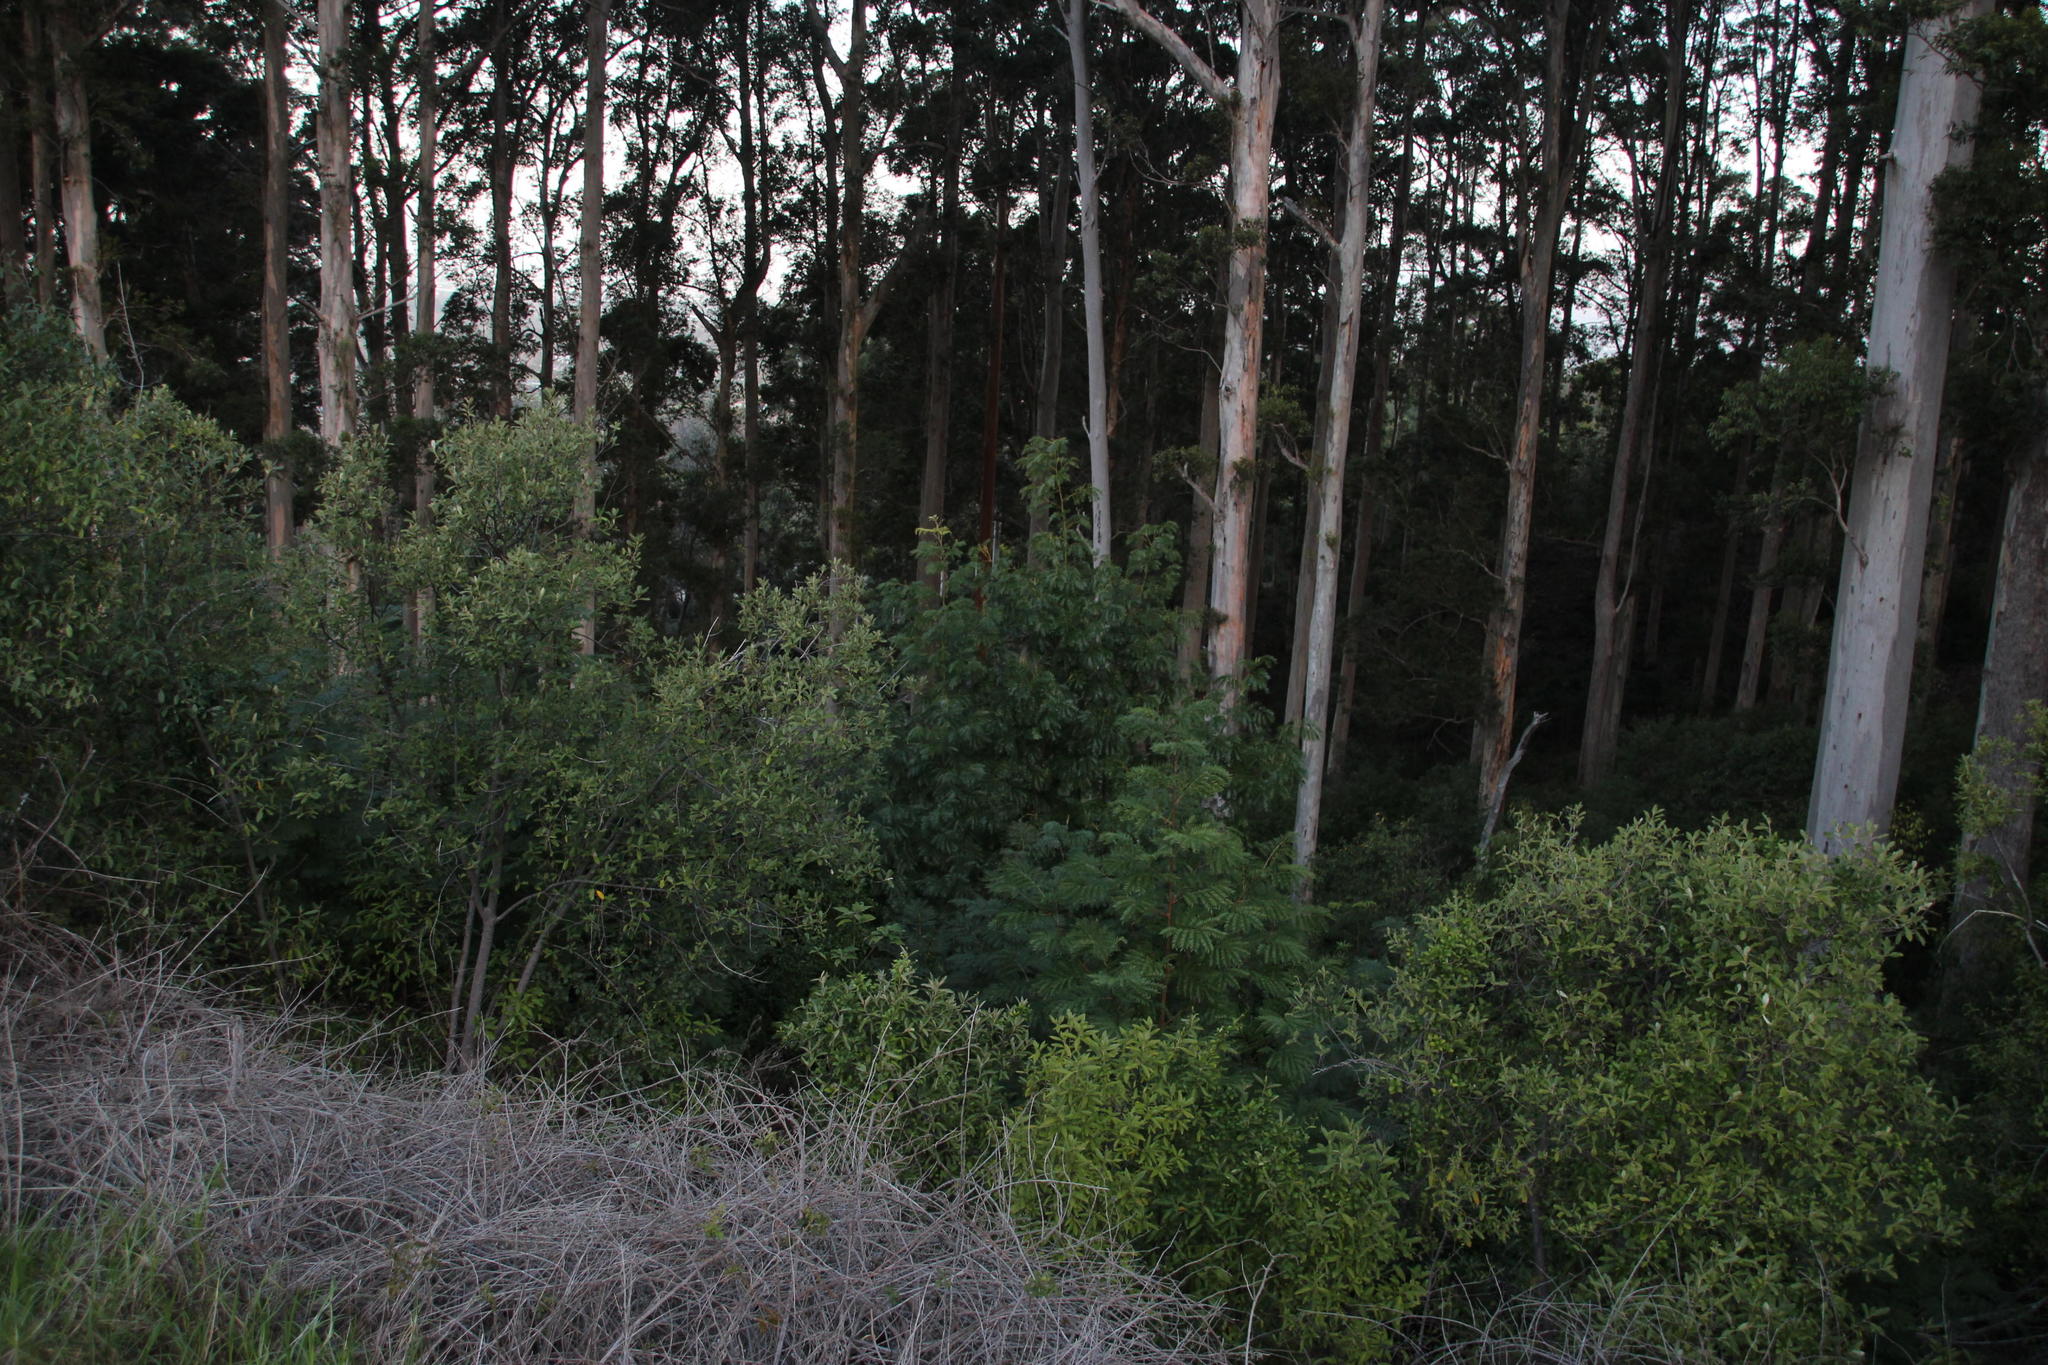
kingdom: Plantae
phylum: Tracheophyta
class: Magnoliopsida
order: Fabales
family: Fabaceae
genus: Acacia
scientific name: Acacia elata
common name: Cedar wattle
